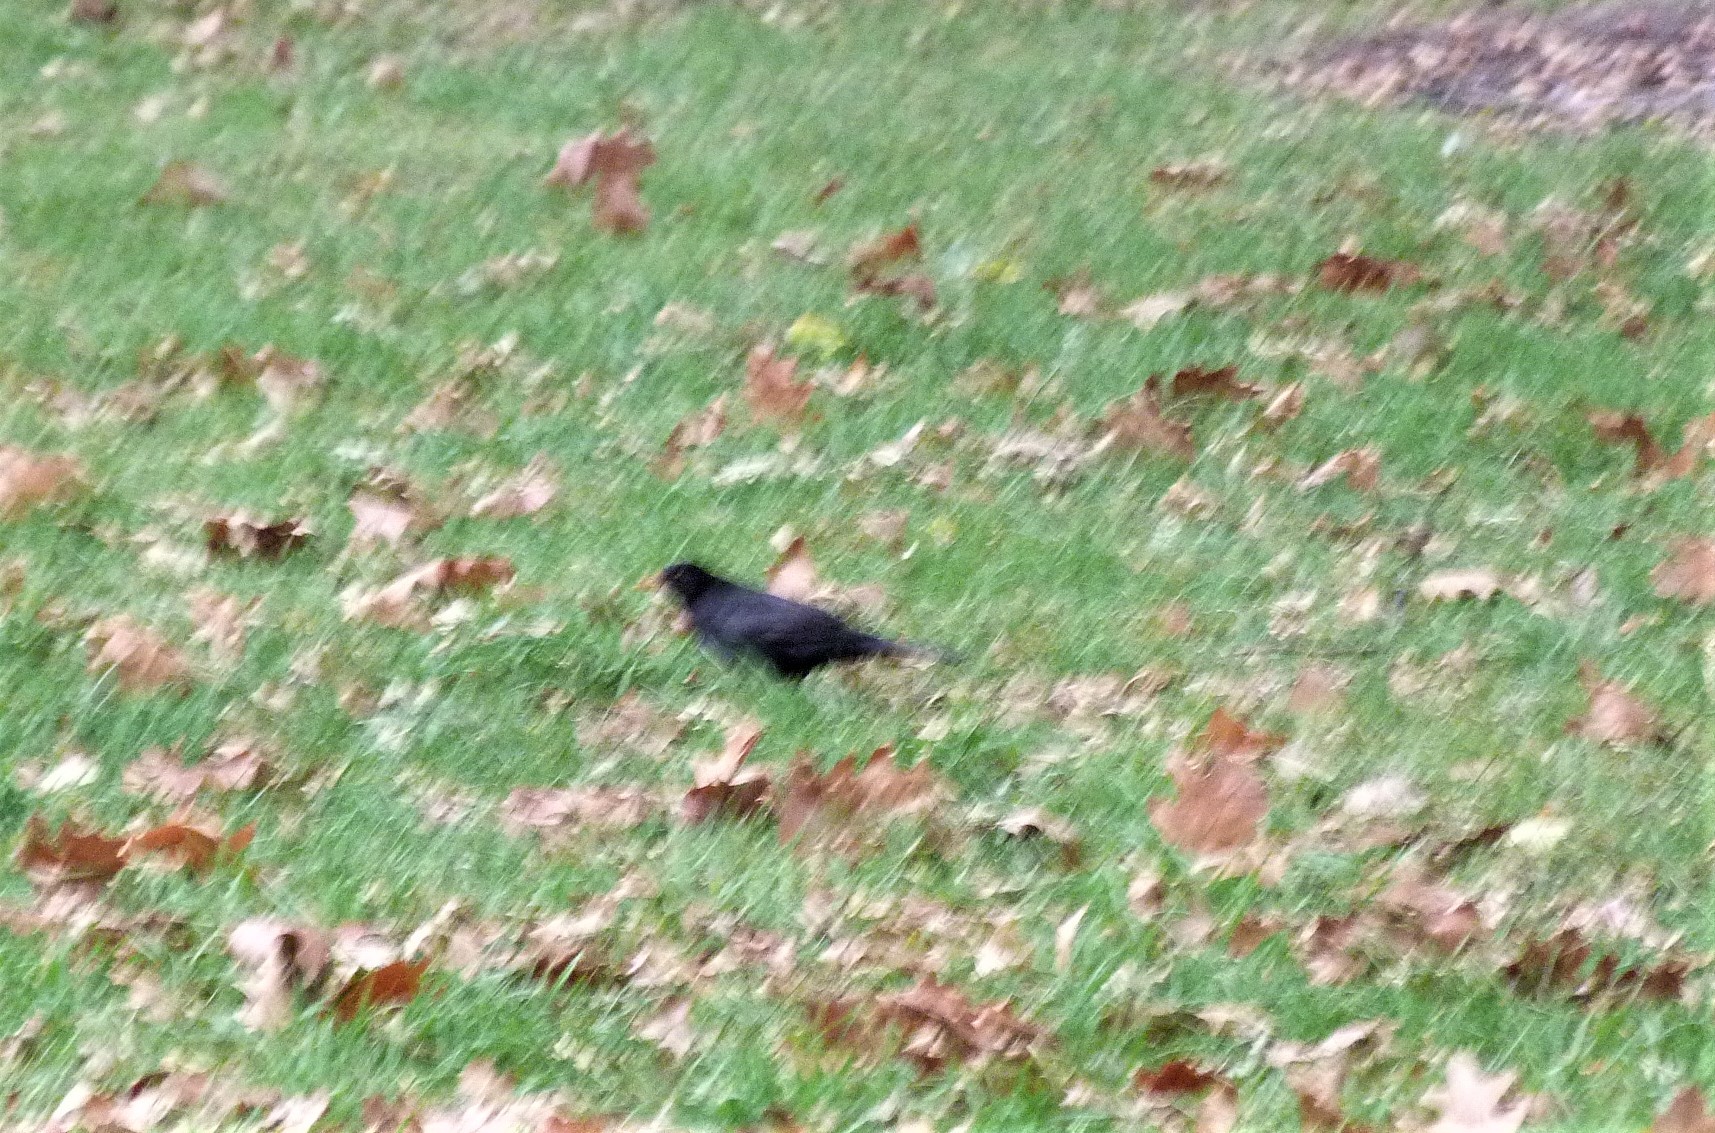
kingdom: Animalia
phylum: Chordata
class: Aves
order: Passeriformes
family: Turdidae
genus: Turdus
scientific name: Turdus merula
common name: Common blackbird
